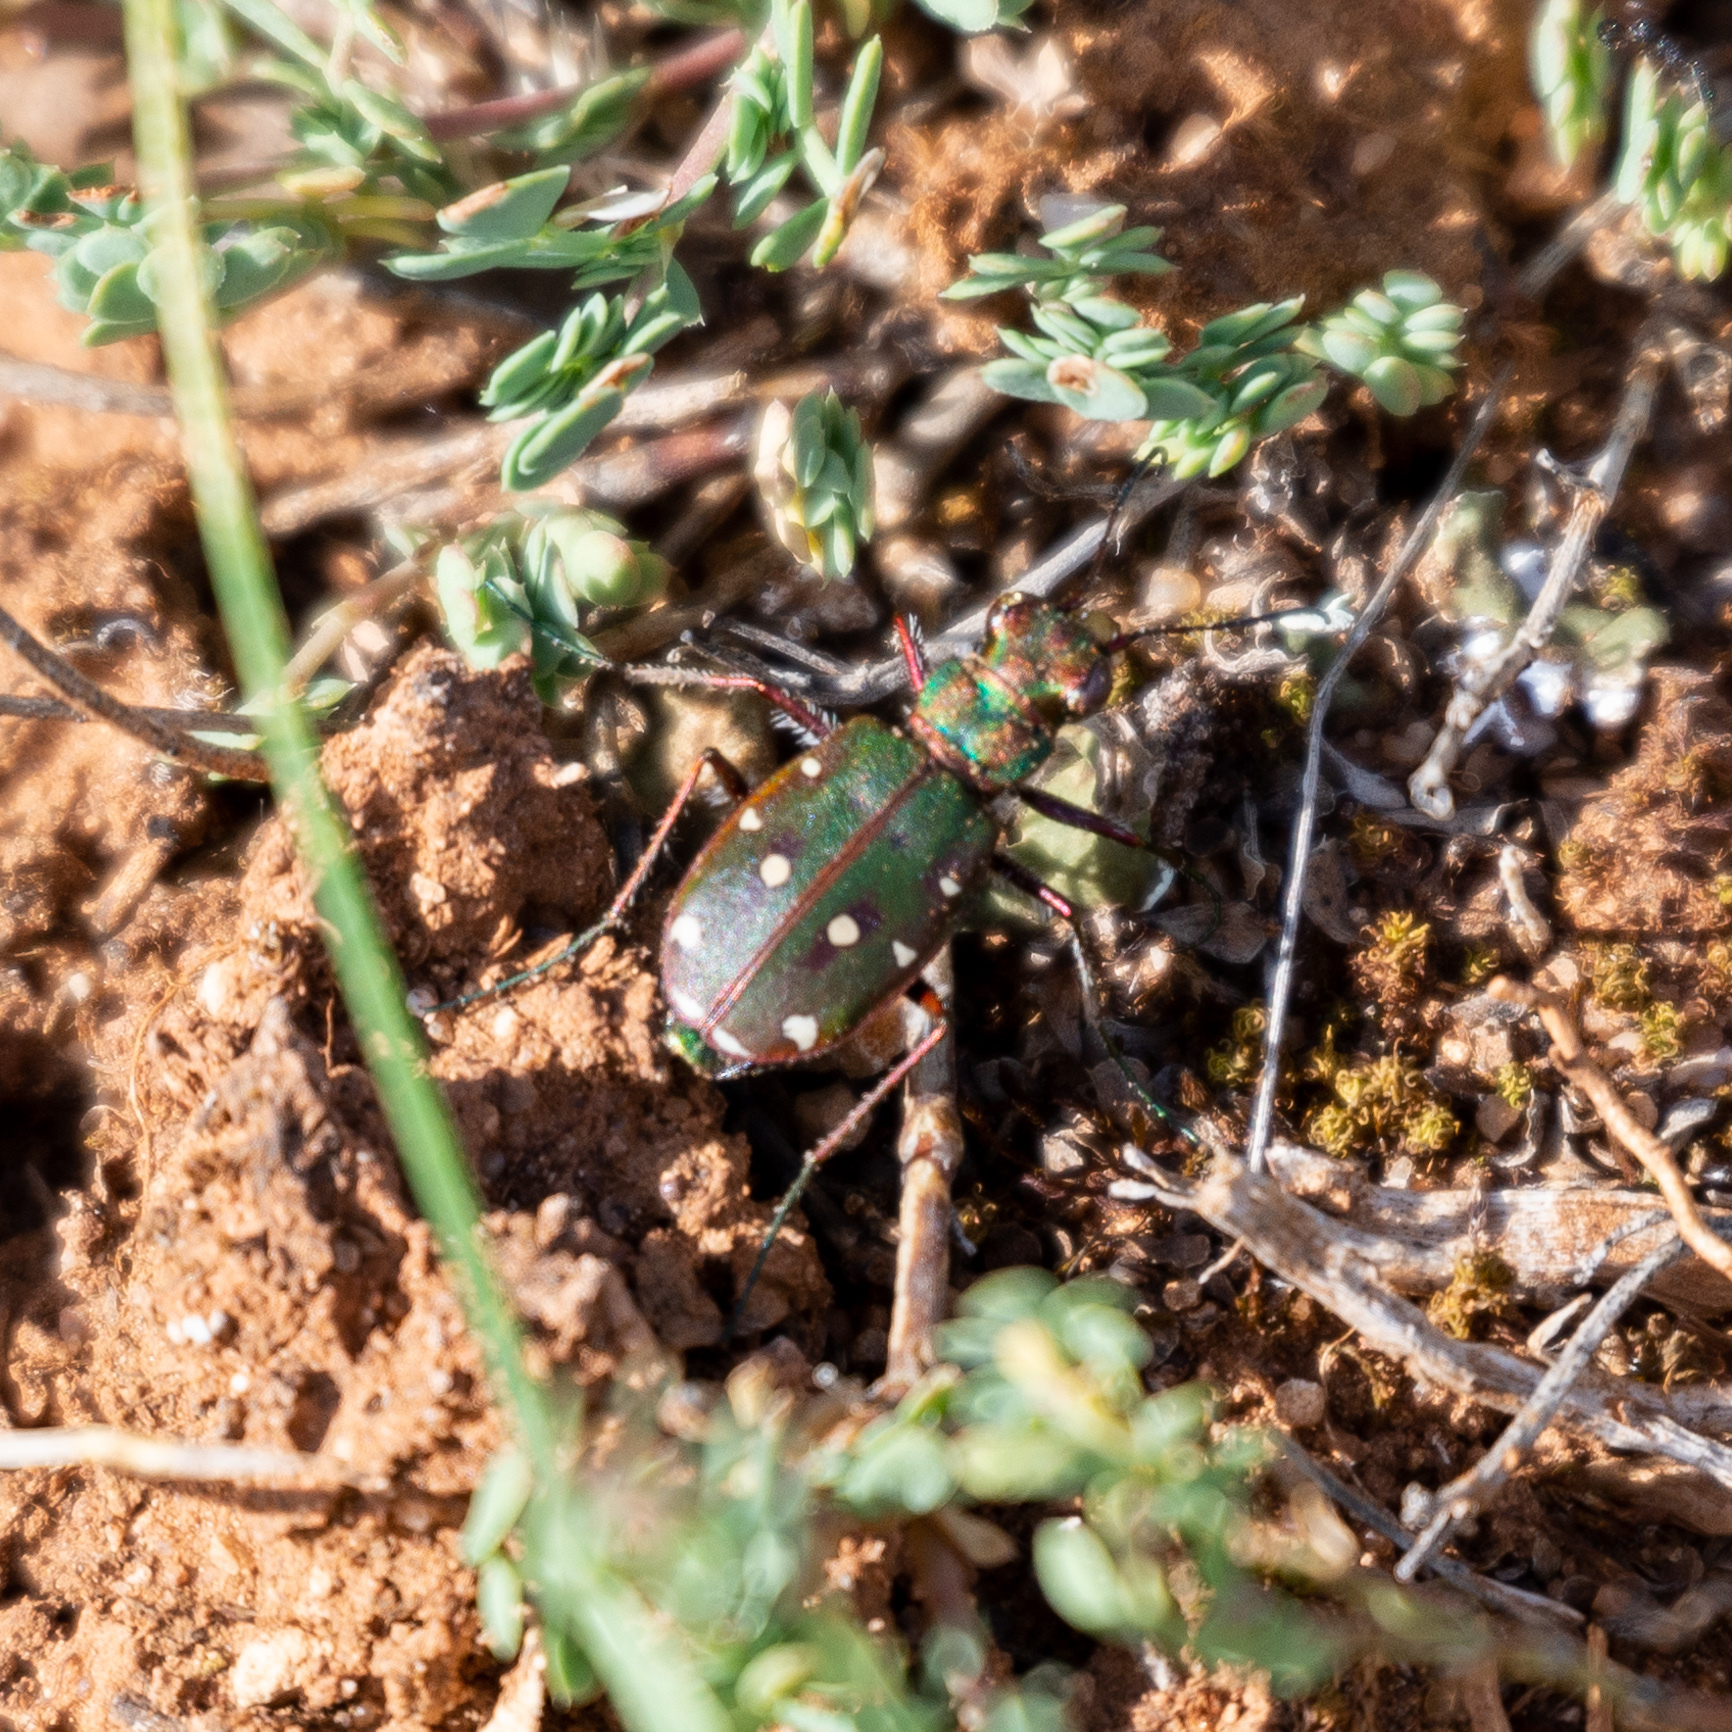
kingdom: Animalia
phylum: Arthropoda
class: Insecta
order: Coleoptera
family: Carabidae
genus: Cicindela
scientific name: Cicindela maroccana
